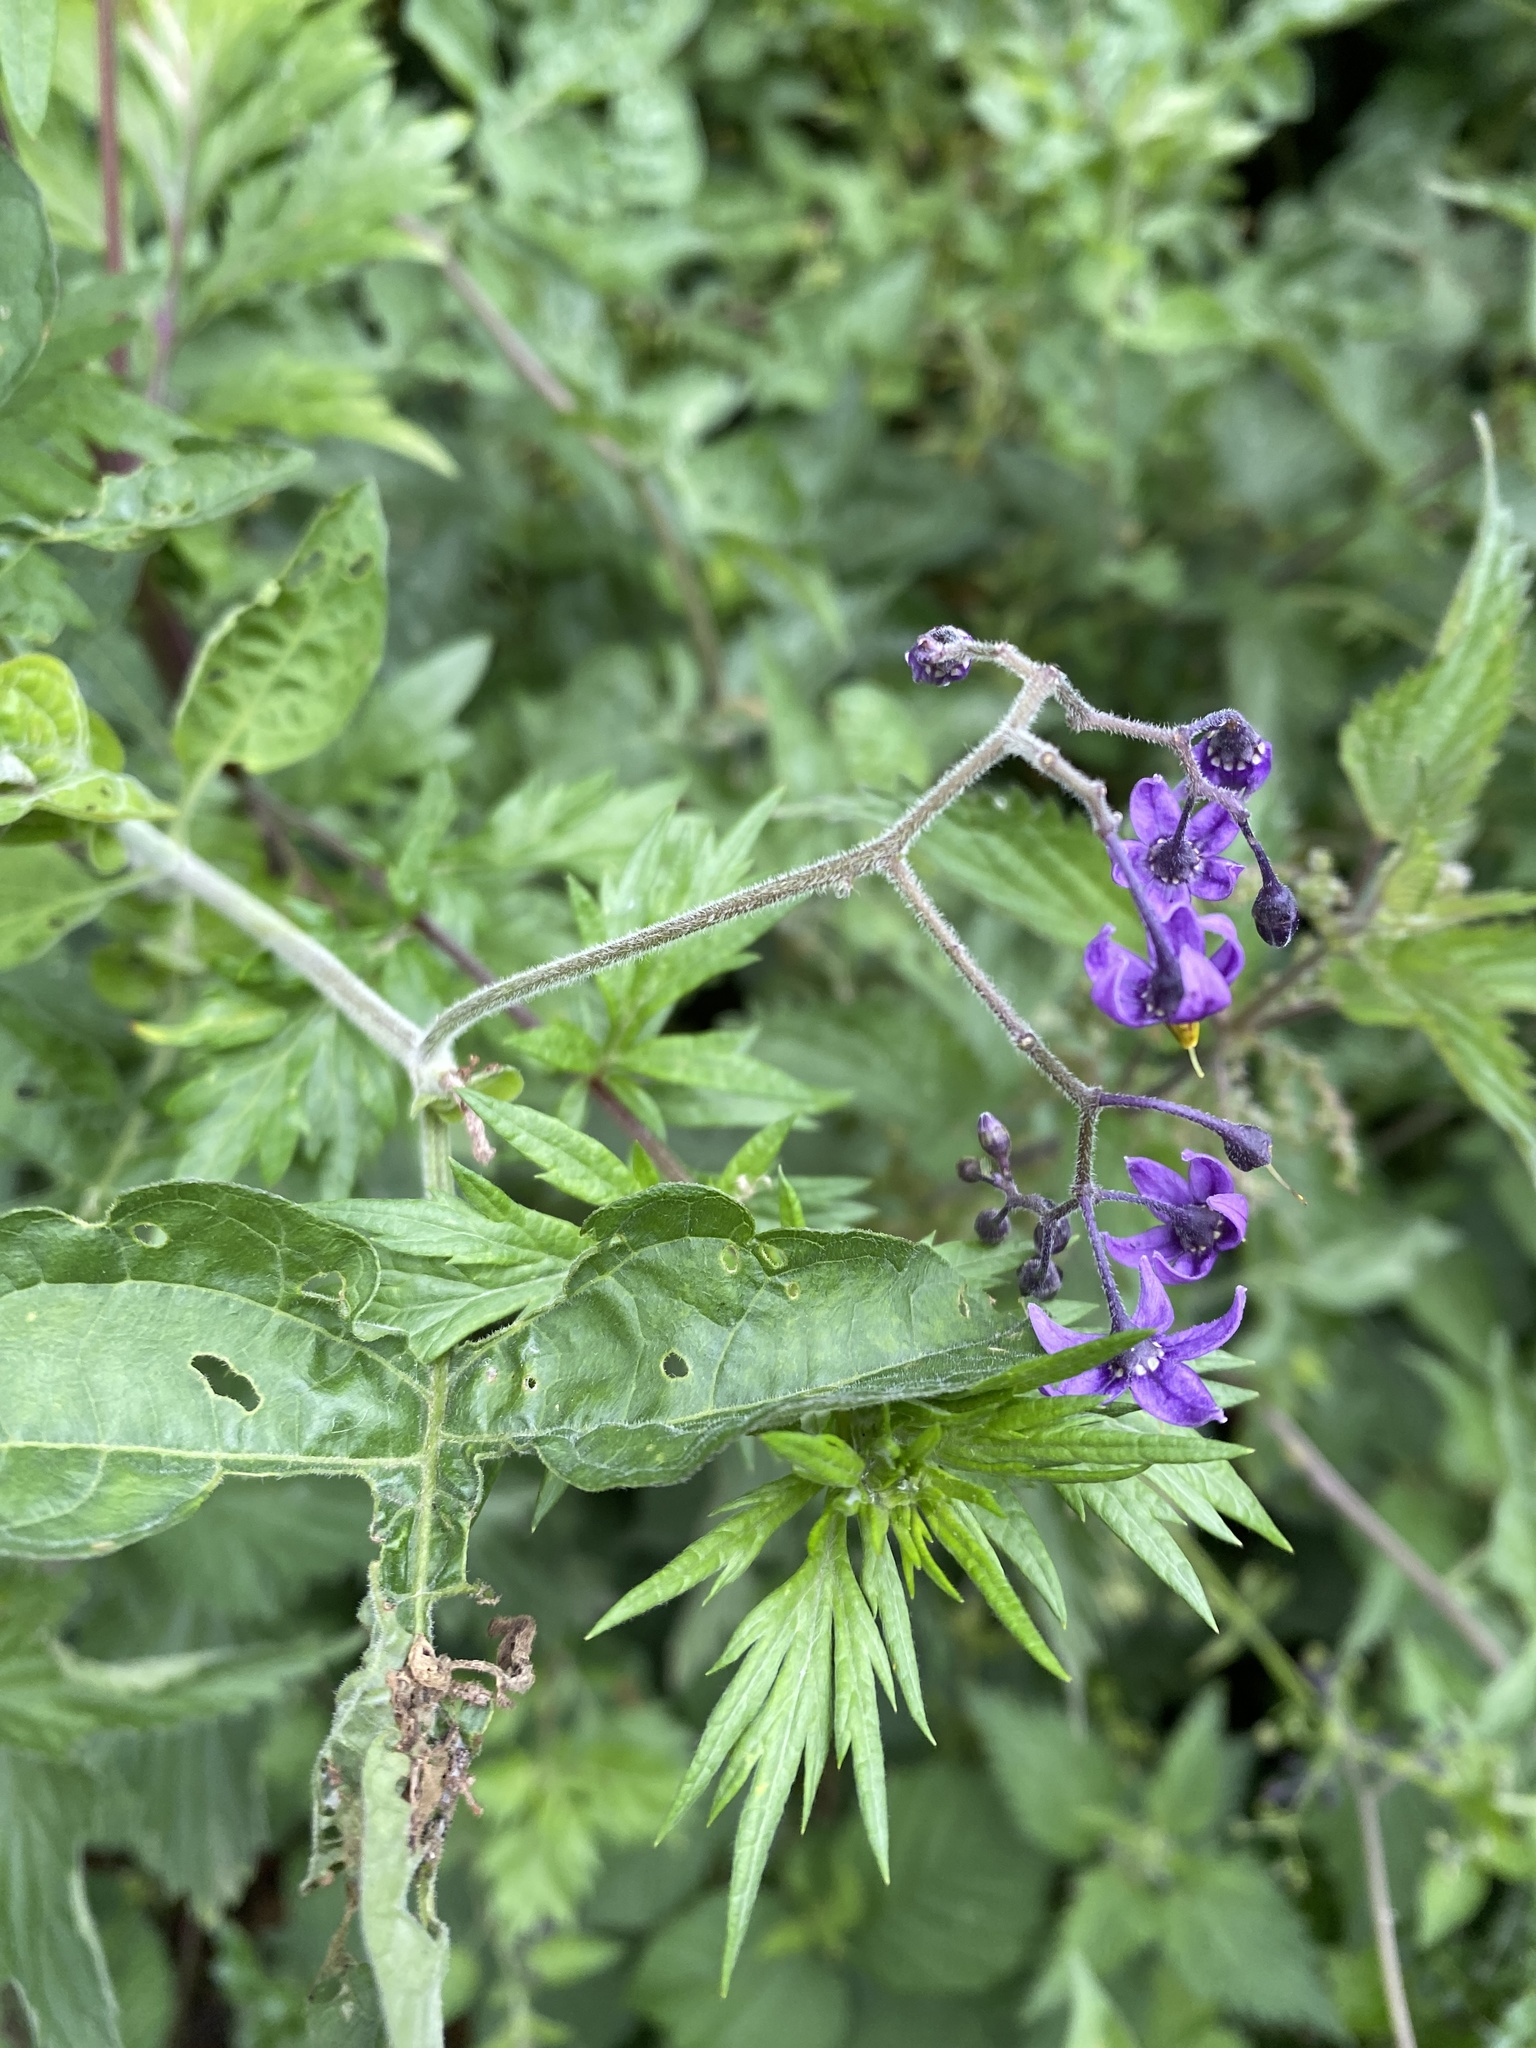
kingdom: Plantae
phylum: Tracheophyta
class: Magnoliopsida
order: Solanales
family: Solanaceae
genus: Solanum
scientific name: Solanum dulcamara
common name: Climbing nightshade
